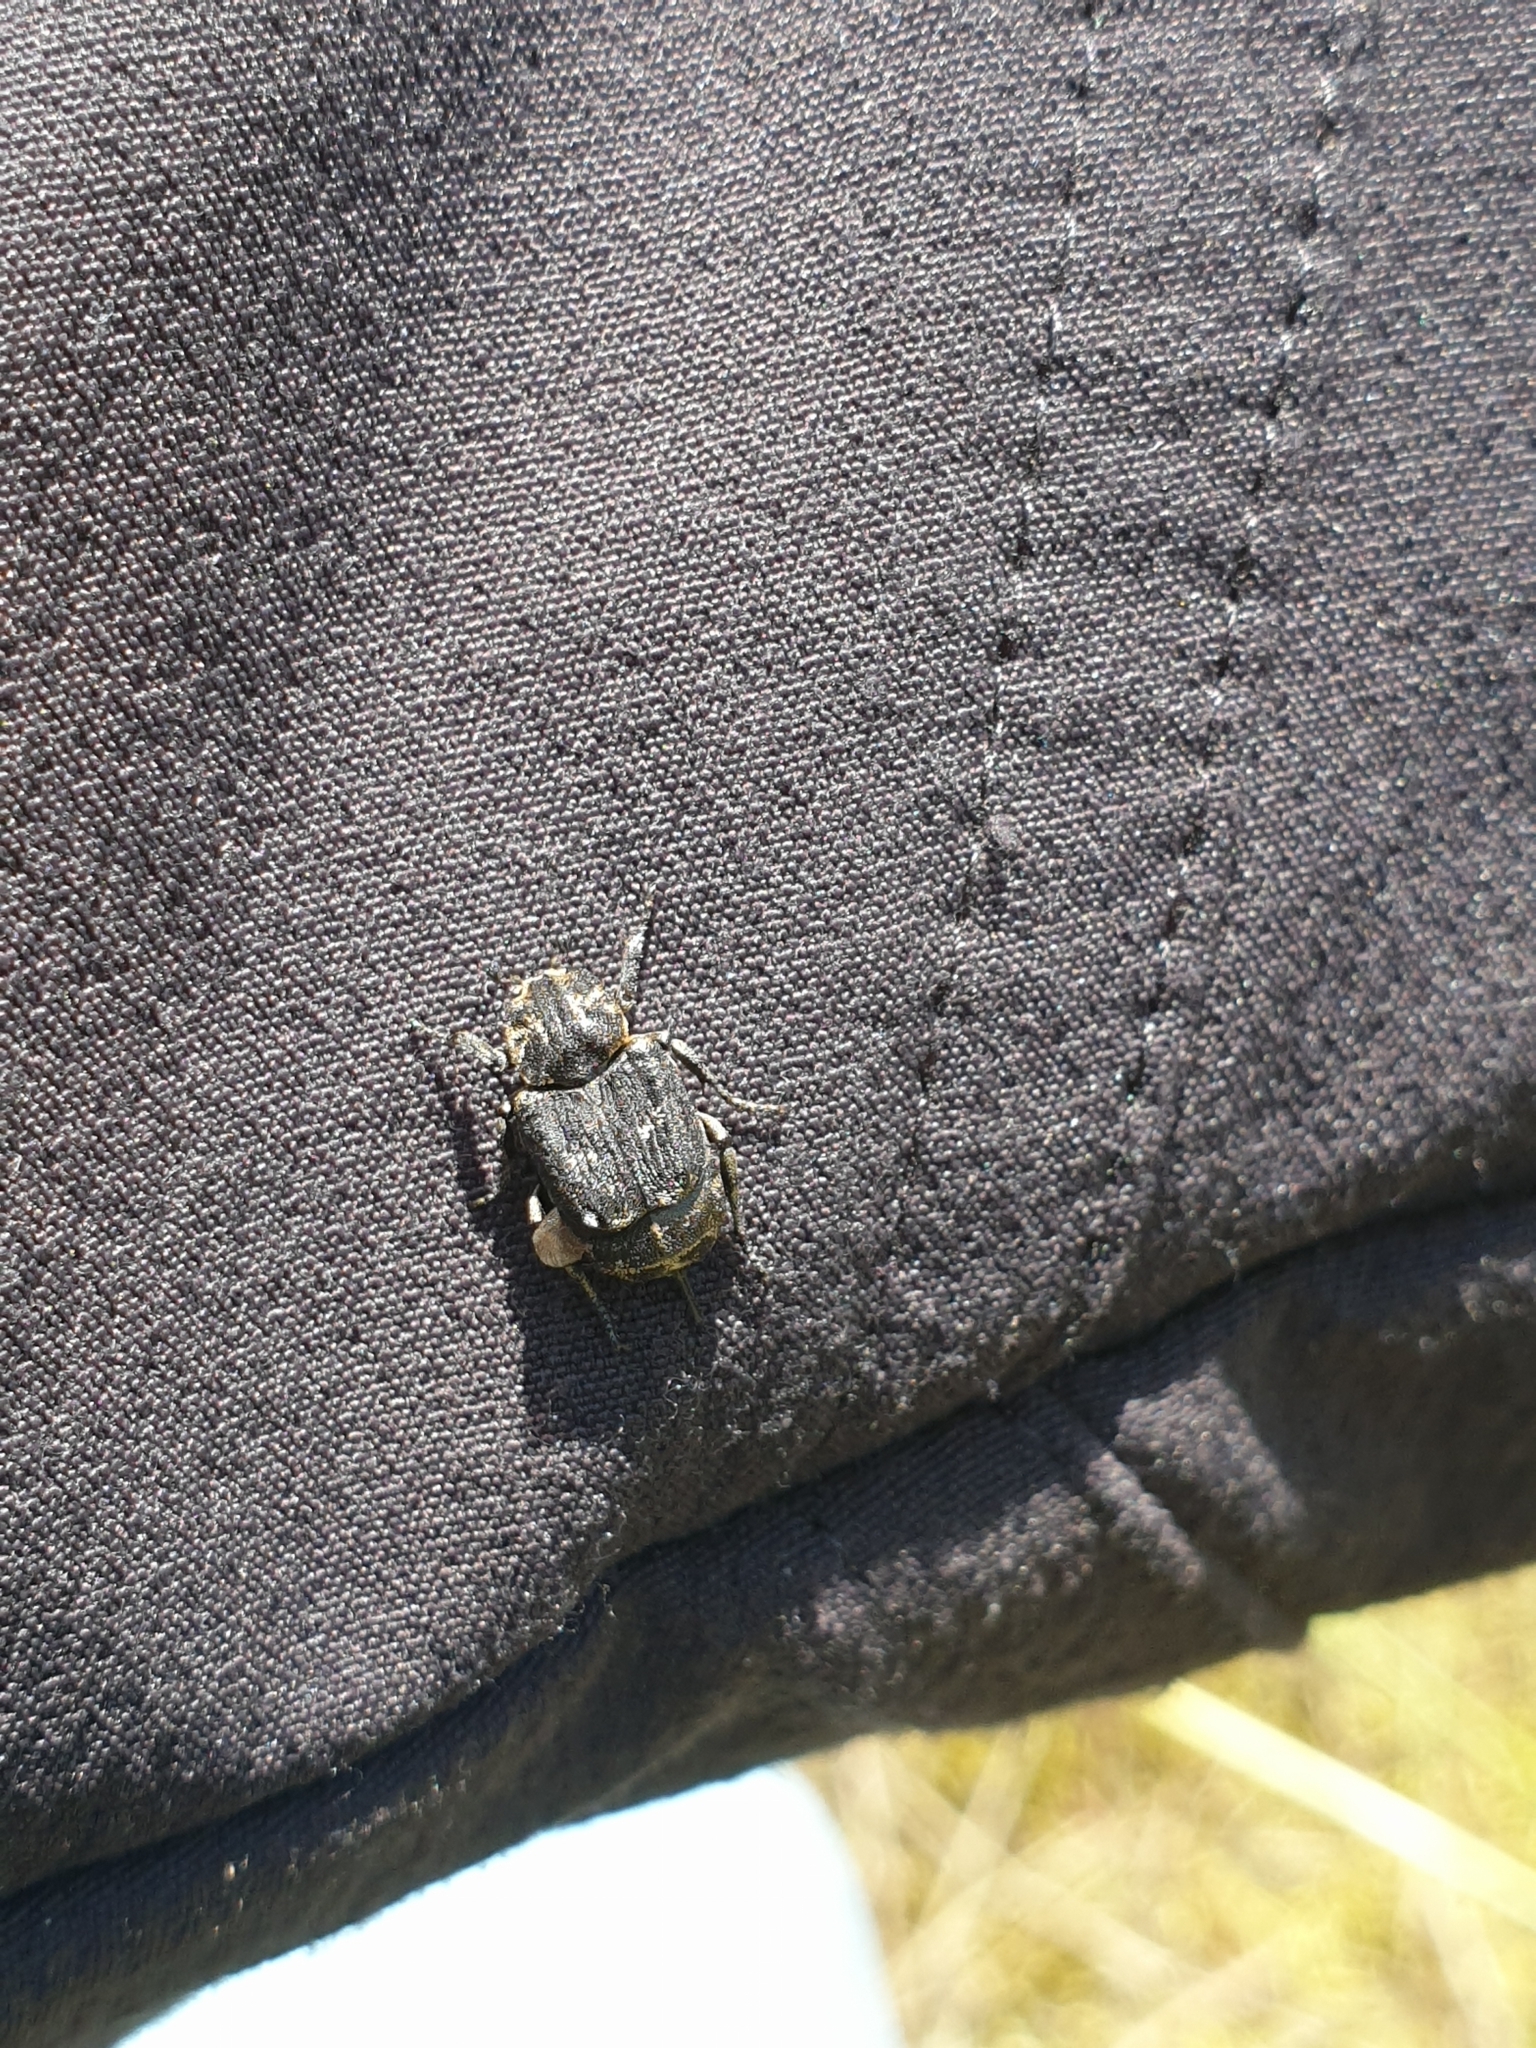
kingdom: Animalia
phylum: Arthropoda
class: Insecta
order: Coleoptera
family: Scarabaeidae
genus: Valgus
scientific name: Valgus hemipterus
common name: Bug flower chafer
